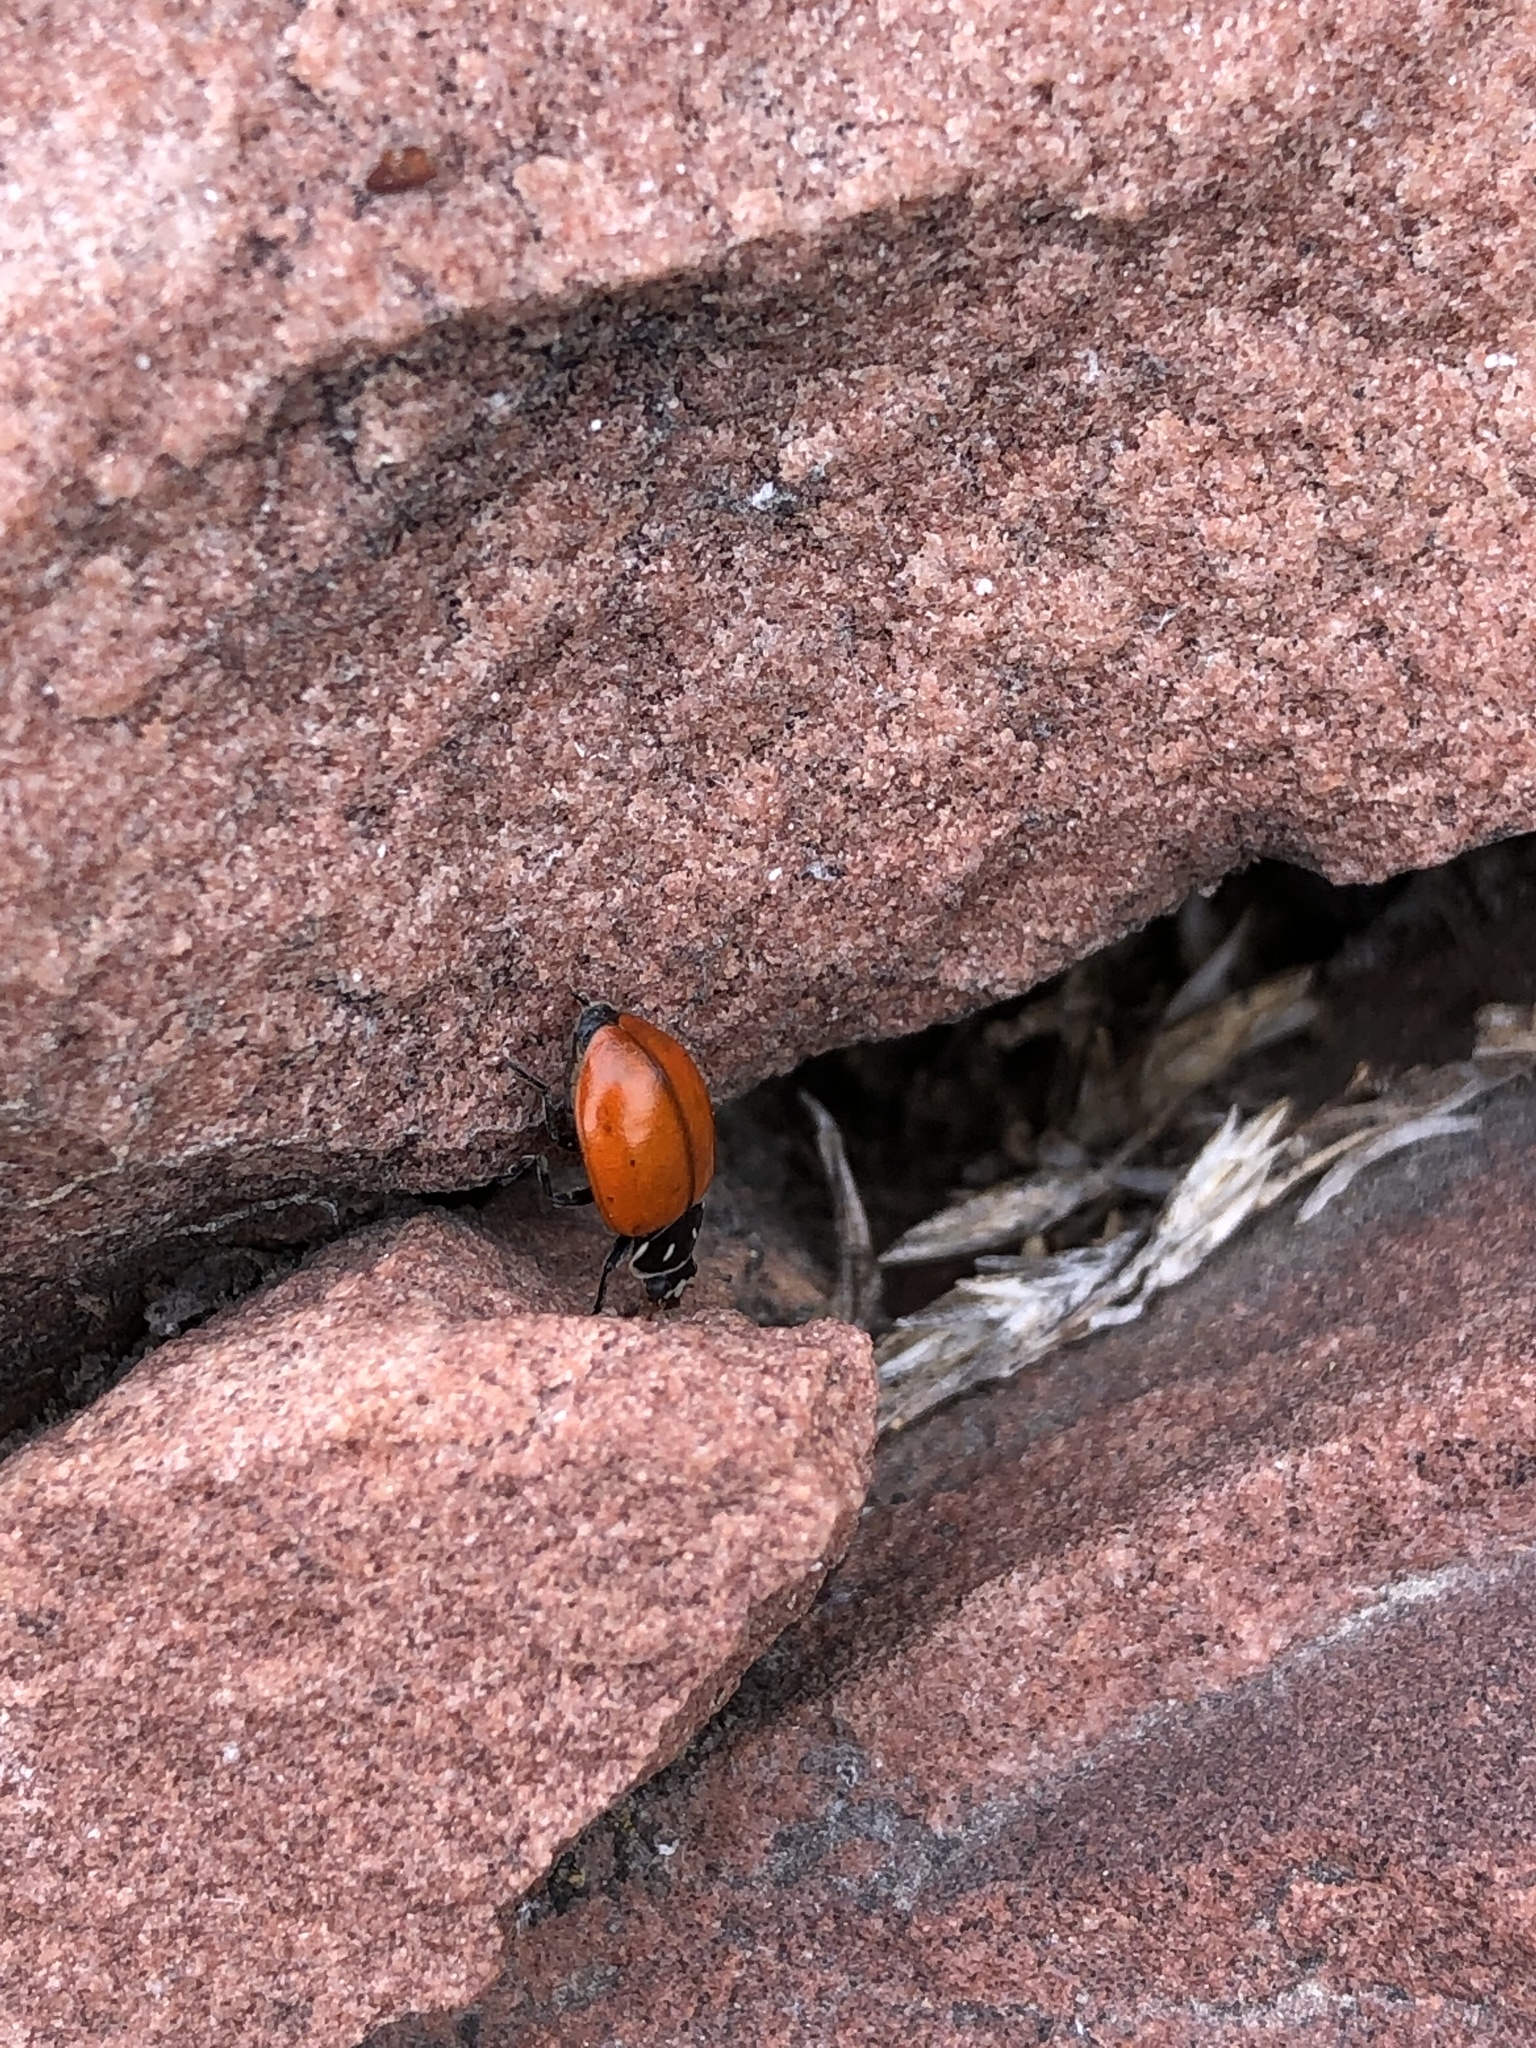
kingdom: Animalia
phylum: Arthropoda
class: Insecta
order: Coleoptera
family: Coccinellidae
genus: Hippodamia
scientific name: Hippodamia convergens
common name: Convergent lady beetle
